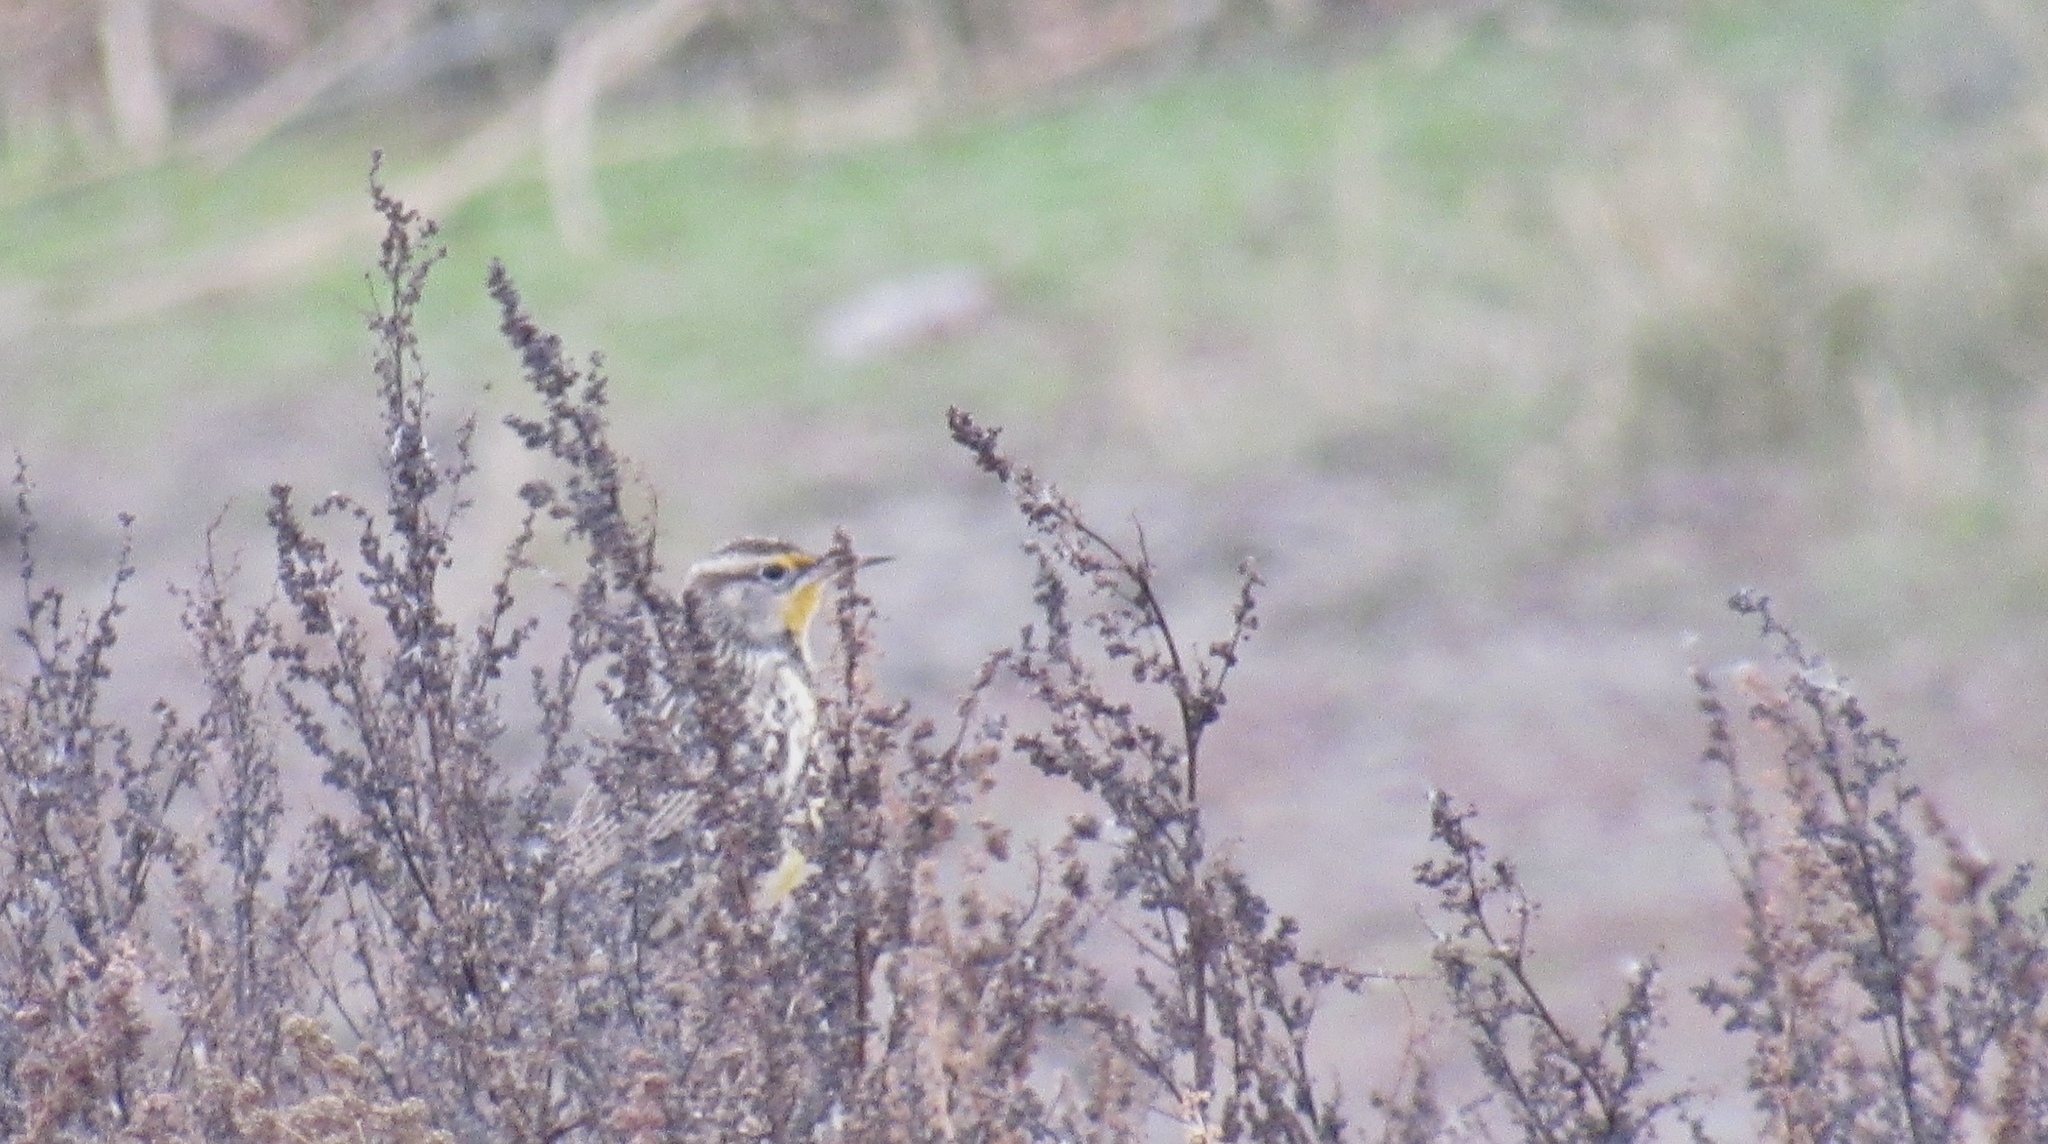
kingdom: Animalia
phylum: Chordata
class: Aves
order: Passeriformes
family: Icteridae
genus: Sturnella
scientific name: Sturnella neglecta
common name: Western meadowlark
